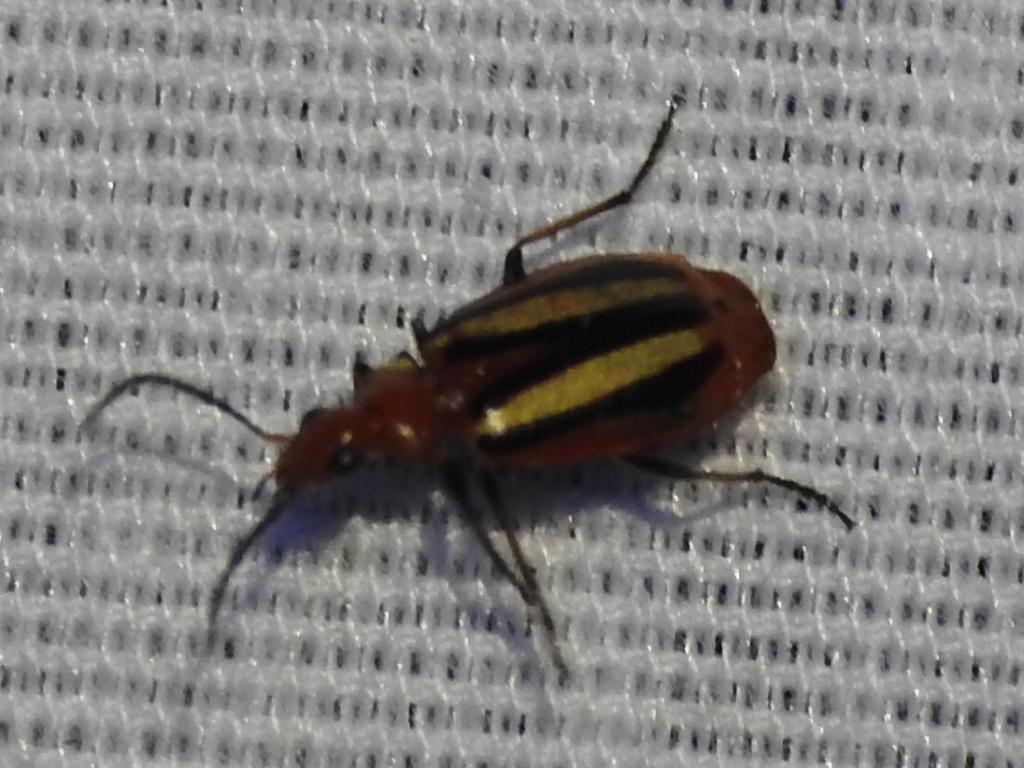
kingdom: Animalia
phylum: Arthropoda
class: Insecta
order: Coleoptera
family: Carabidae
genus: Lebia
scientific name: Lebia vittata
